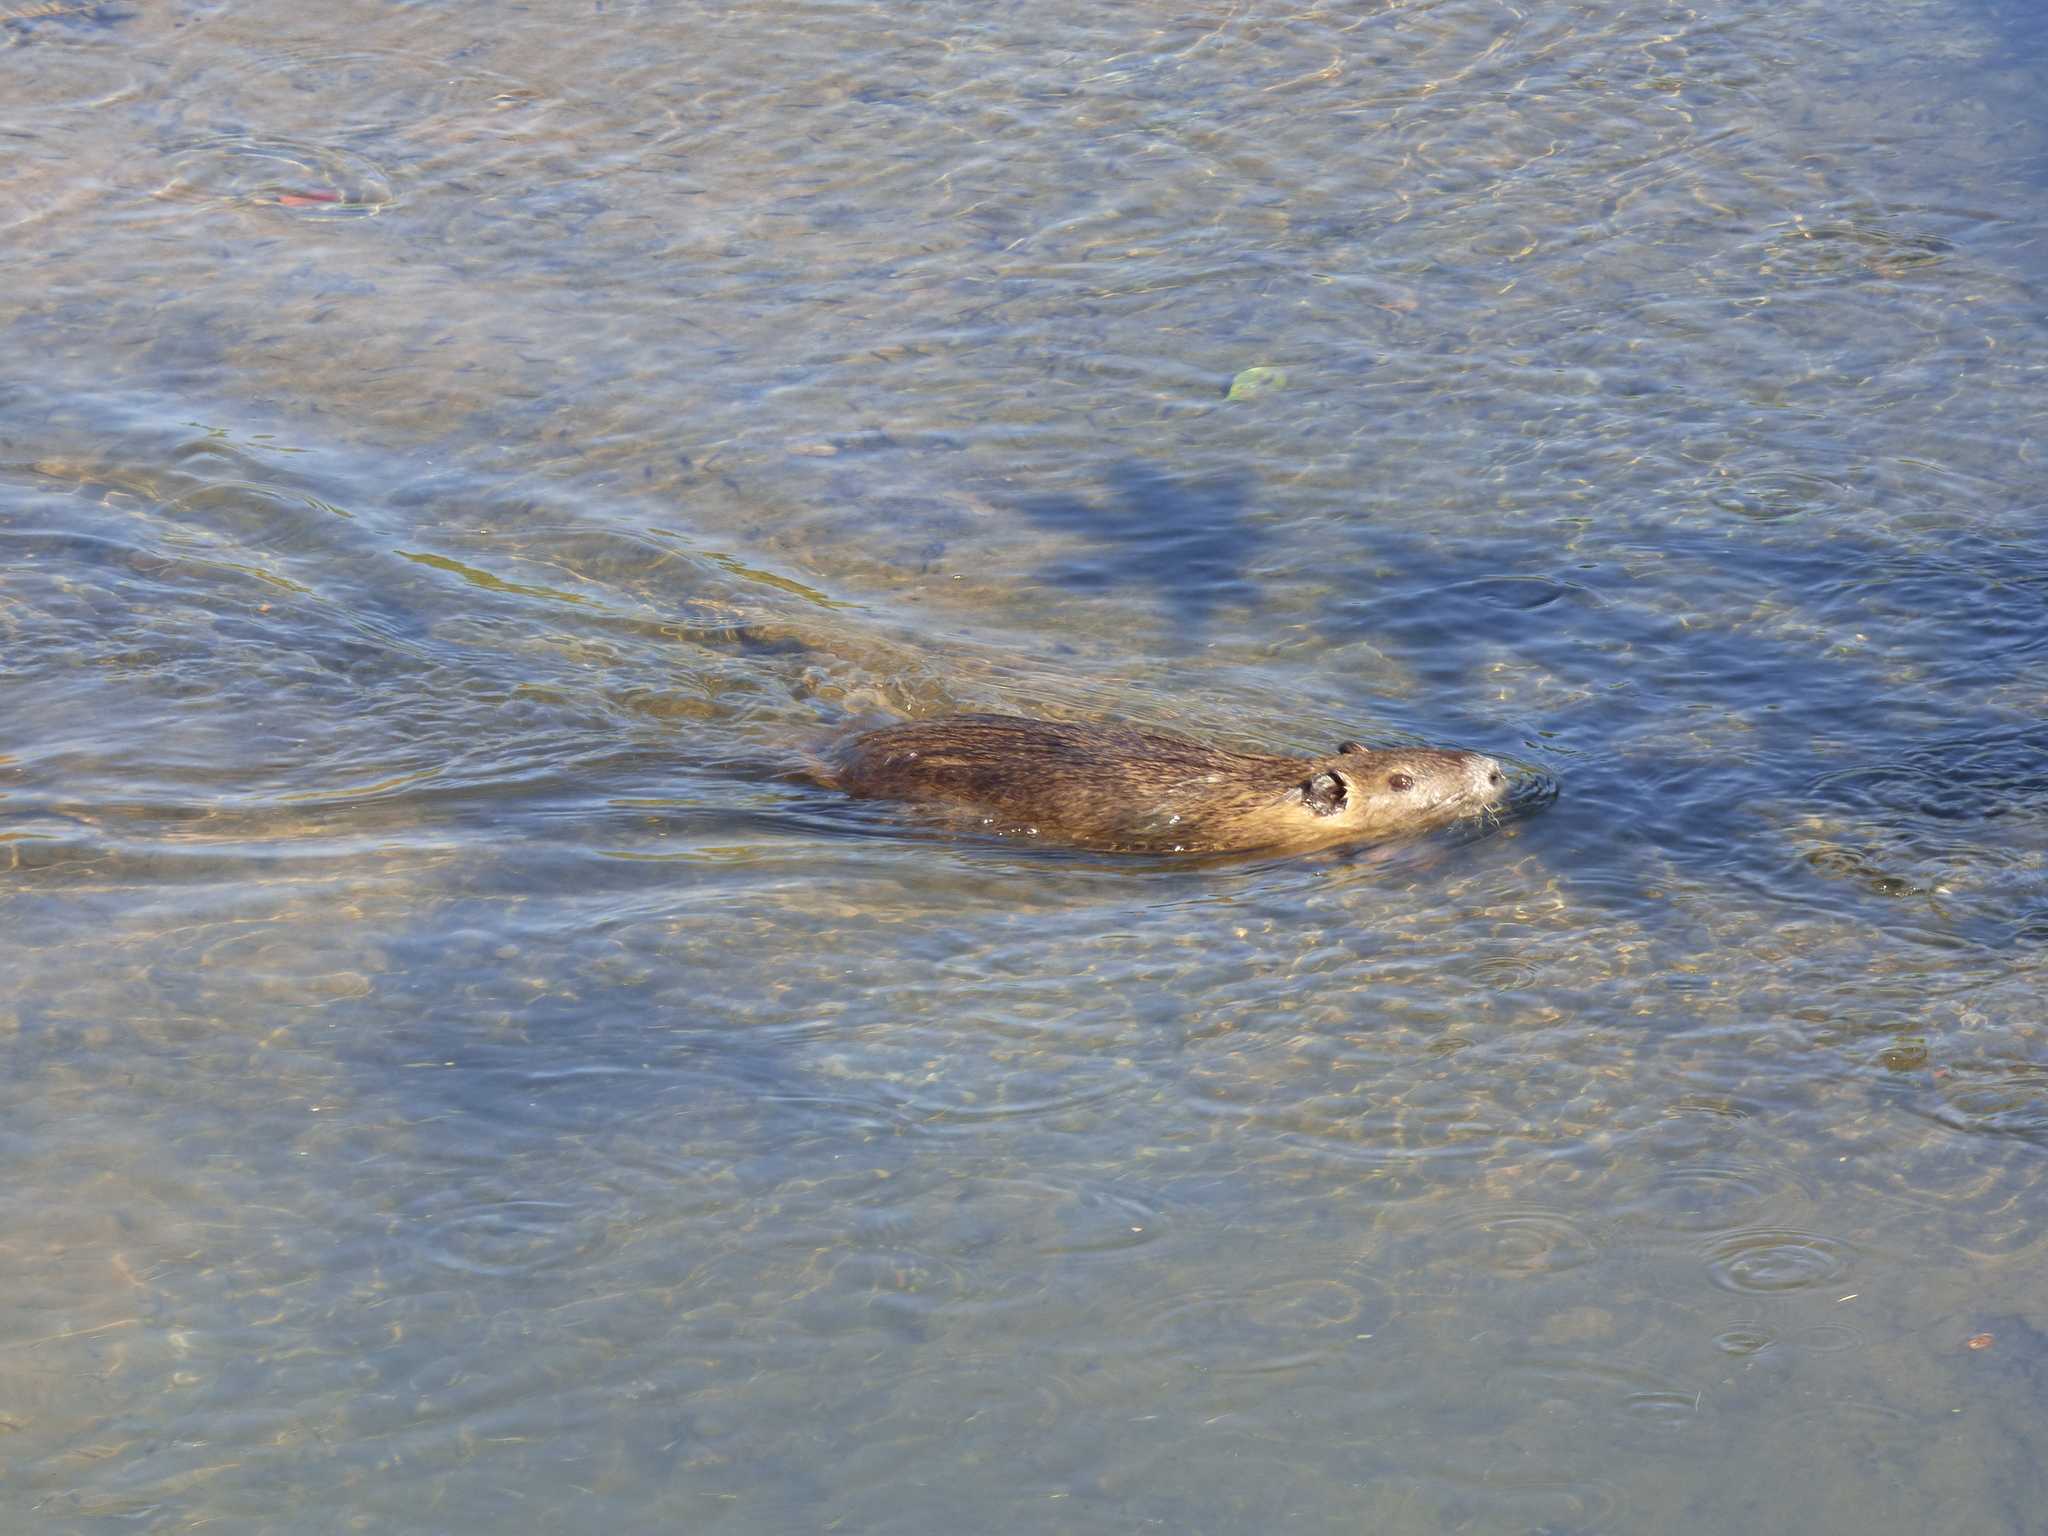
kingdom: Animalia
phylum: Chordata
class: Mammalia
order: Rodentia
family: Myocastoridae
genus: Myocastor
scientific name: Myocastor coypus
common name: Coypu
